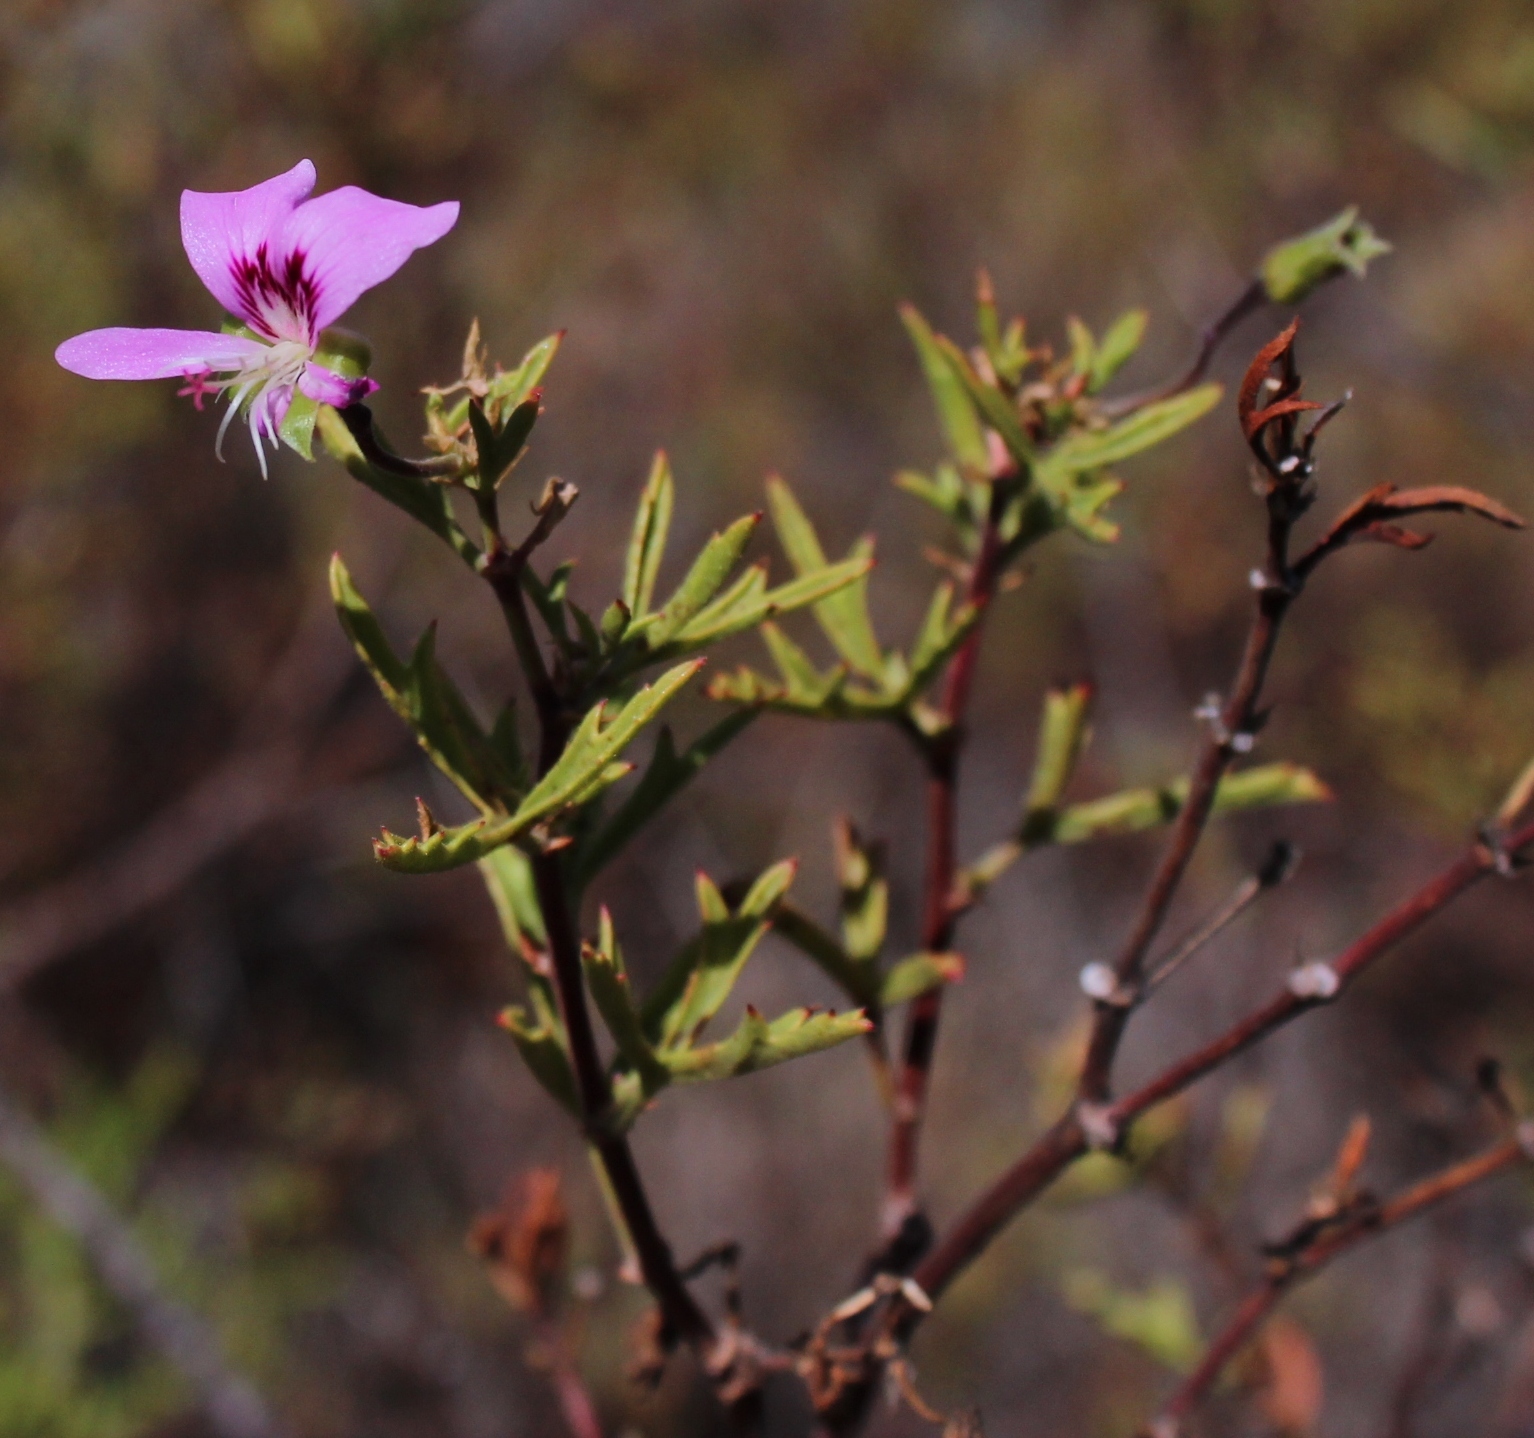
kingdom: Plantae
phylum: Tracheophyta
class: Magnoliopsida
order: Geraniales
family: Geraniaceae
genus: Pelargonium
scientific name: Pelargonium scabrum
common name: Apricot geranium
